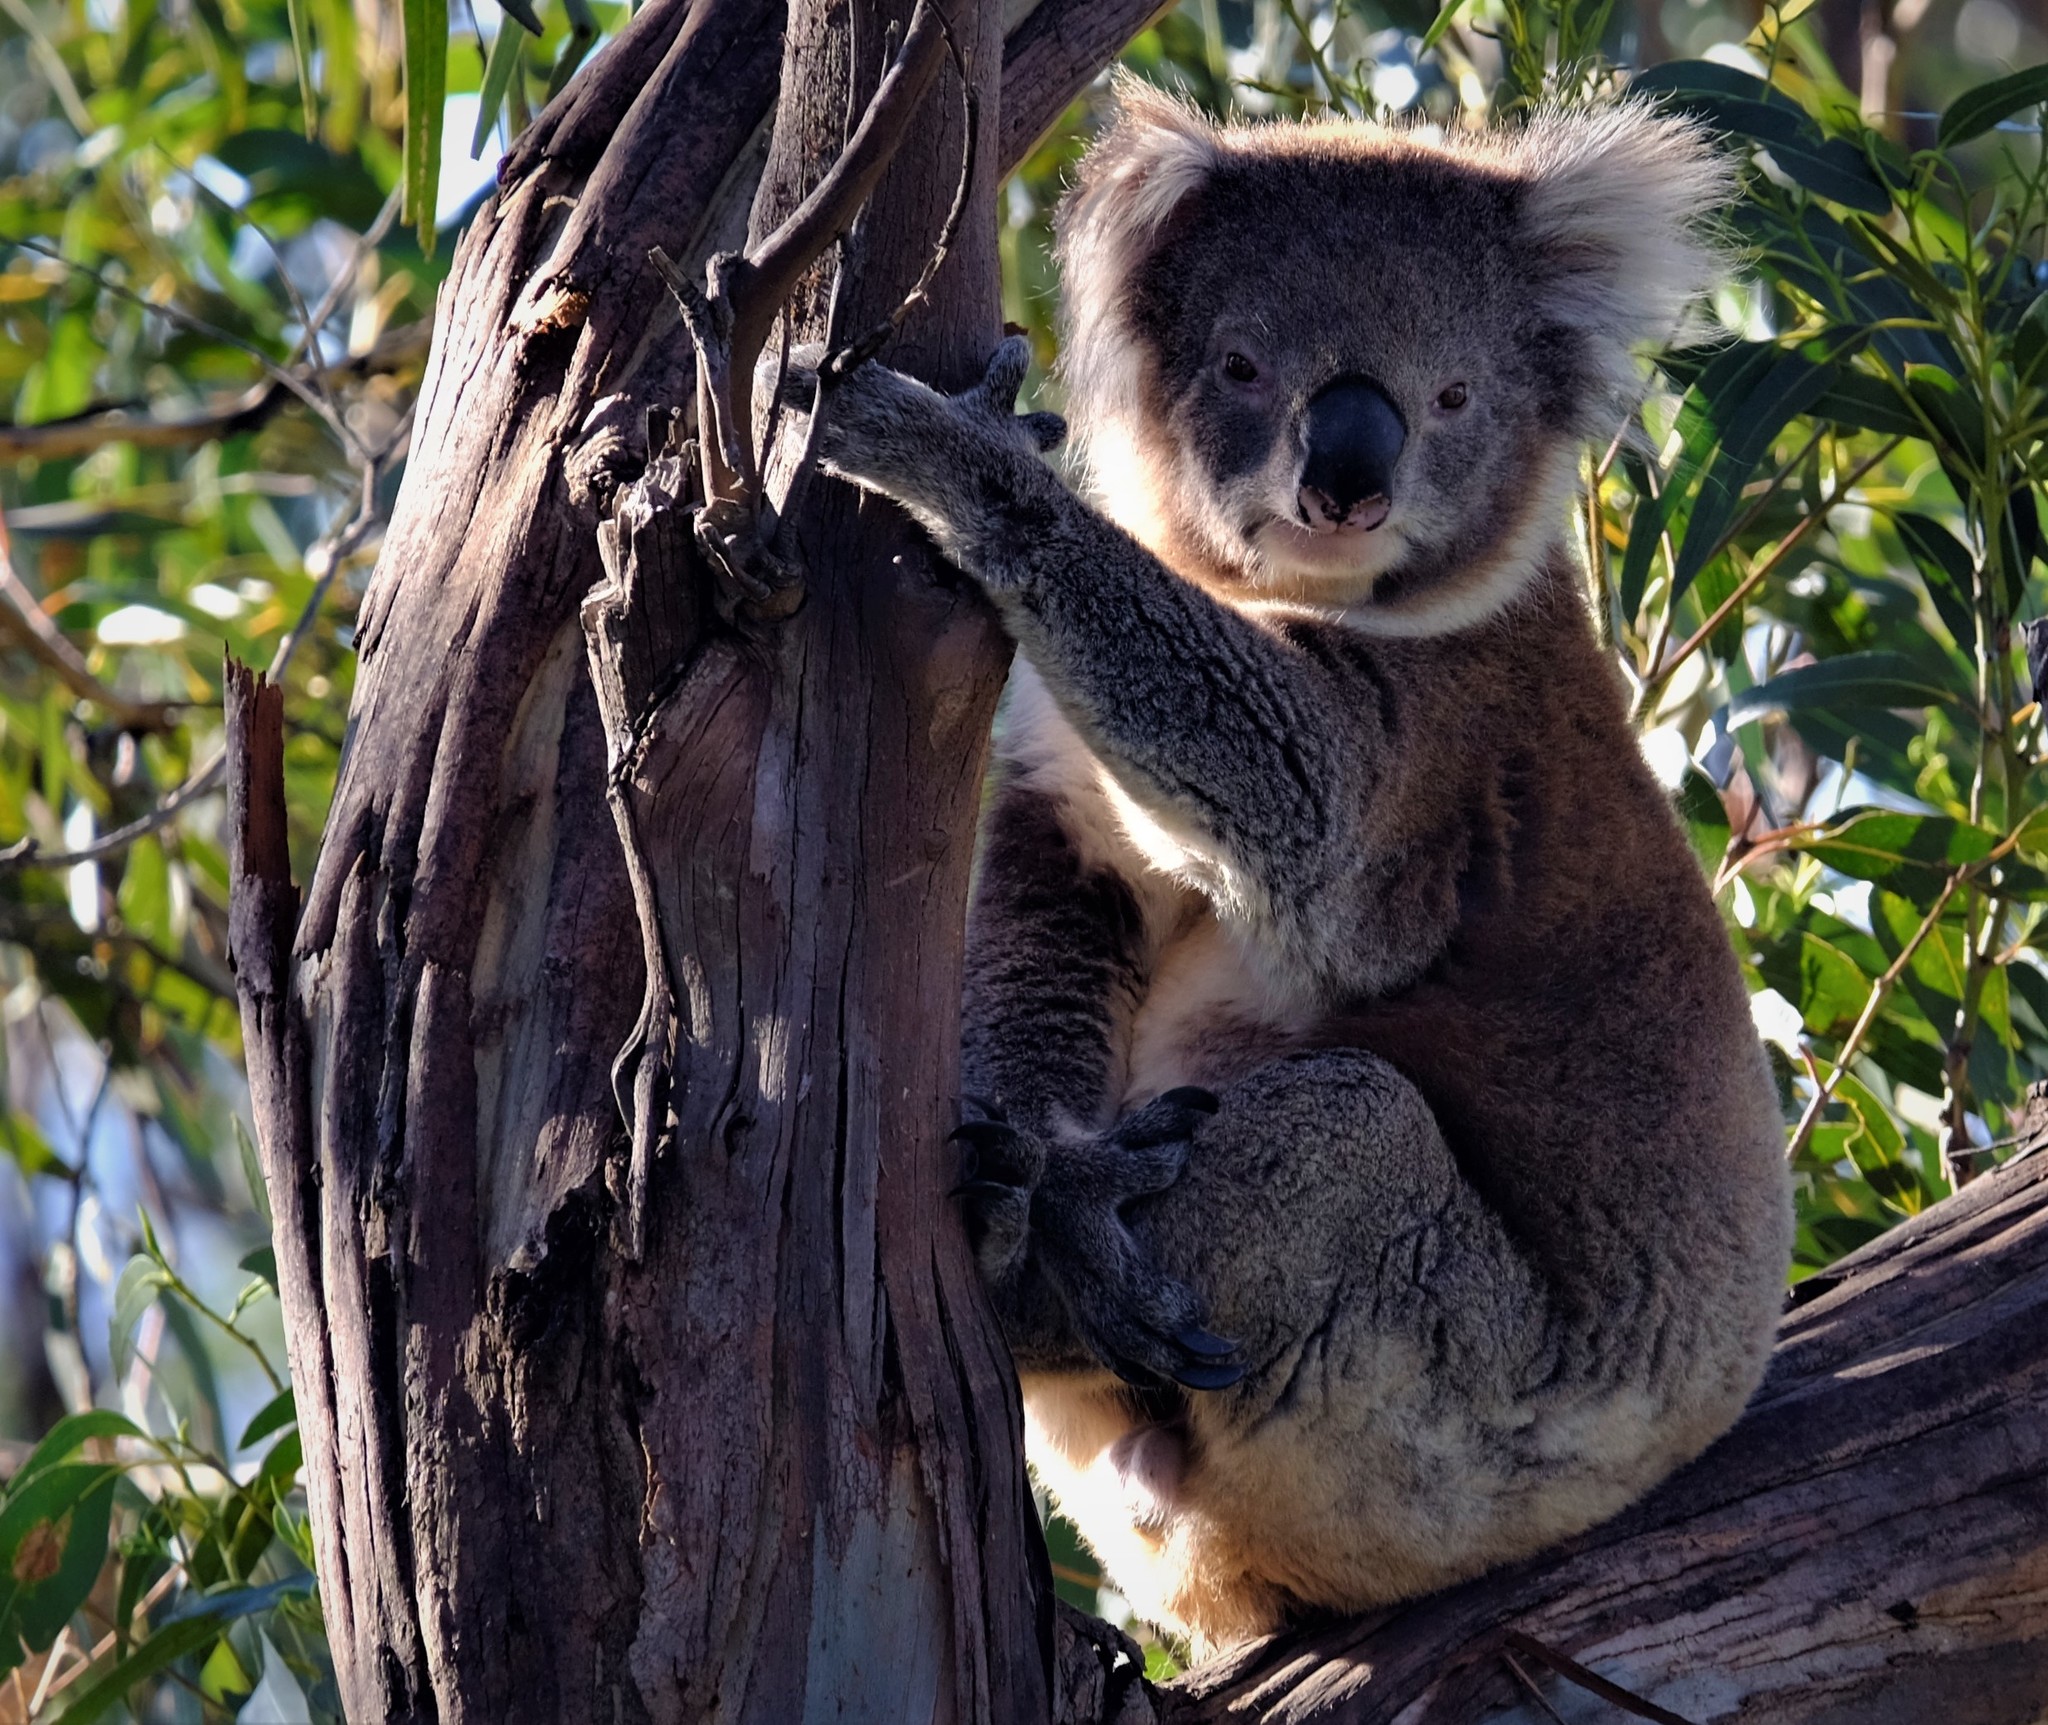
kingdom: Animalia
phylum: Chordata
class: Mammalia
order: Diprotodontia
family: Phascolarctidae
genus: Phascolarctos
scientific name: Phascolarctos cinereus
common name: Koala
